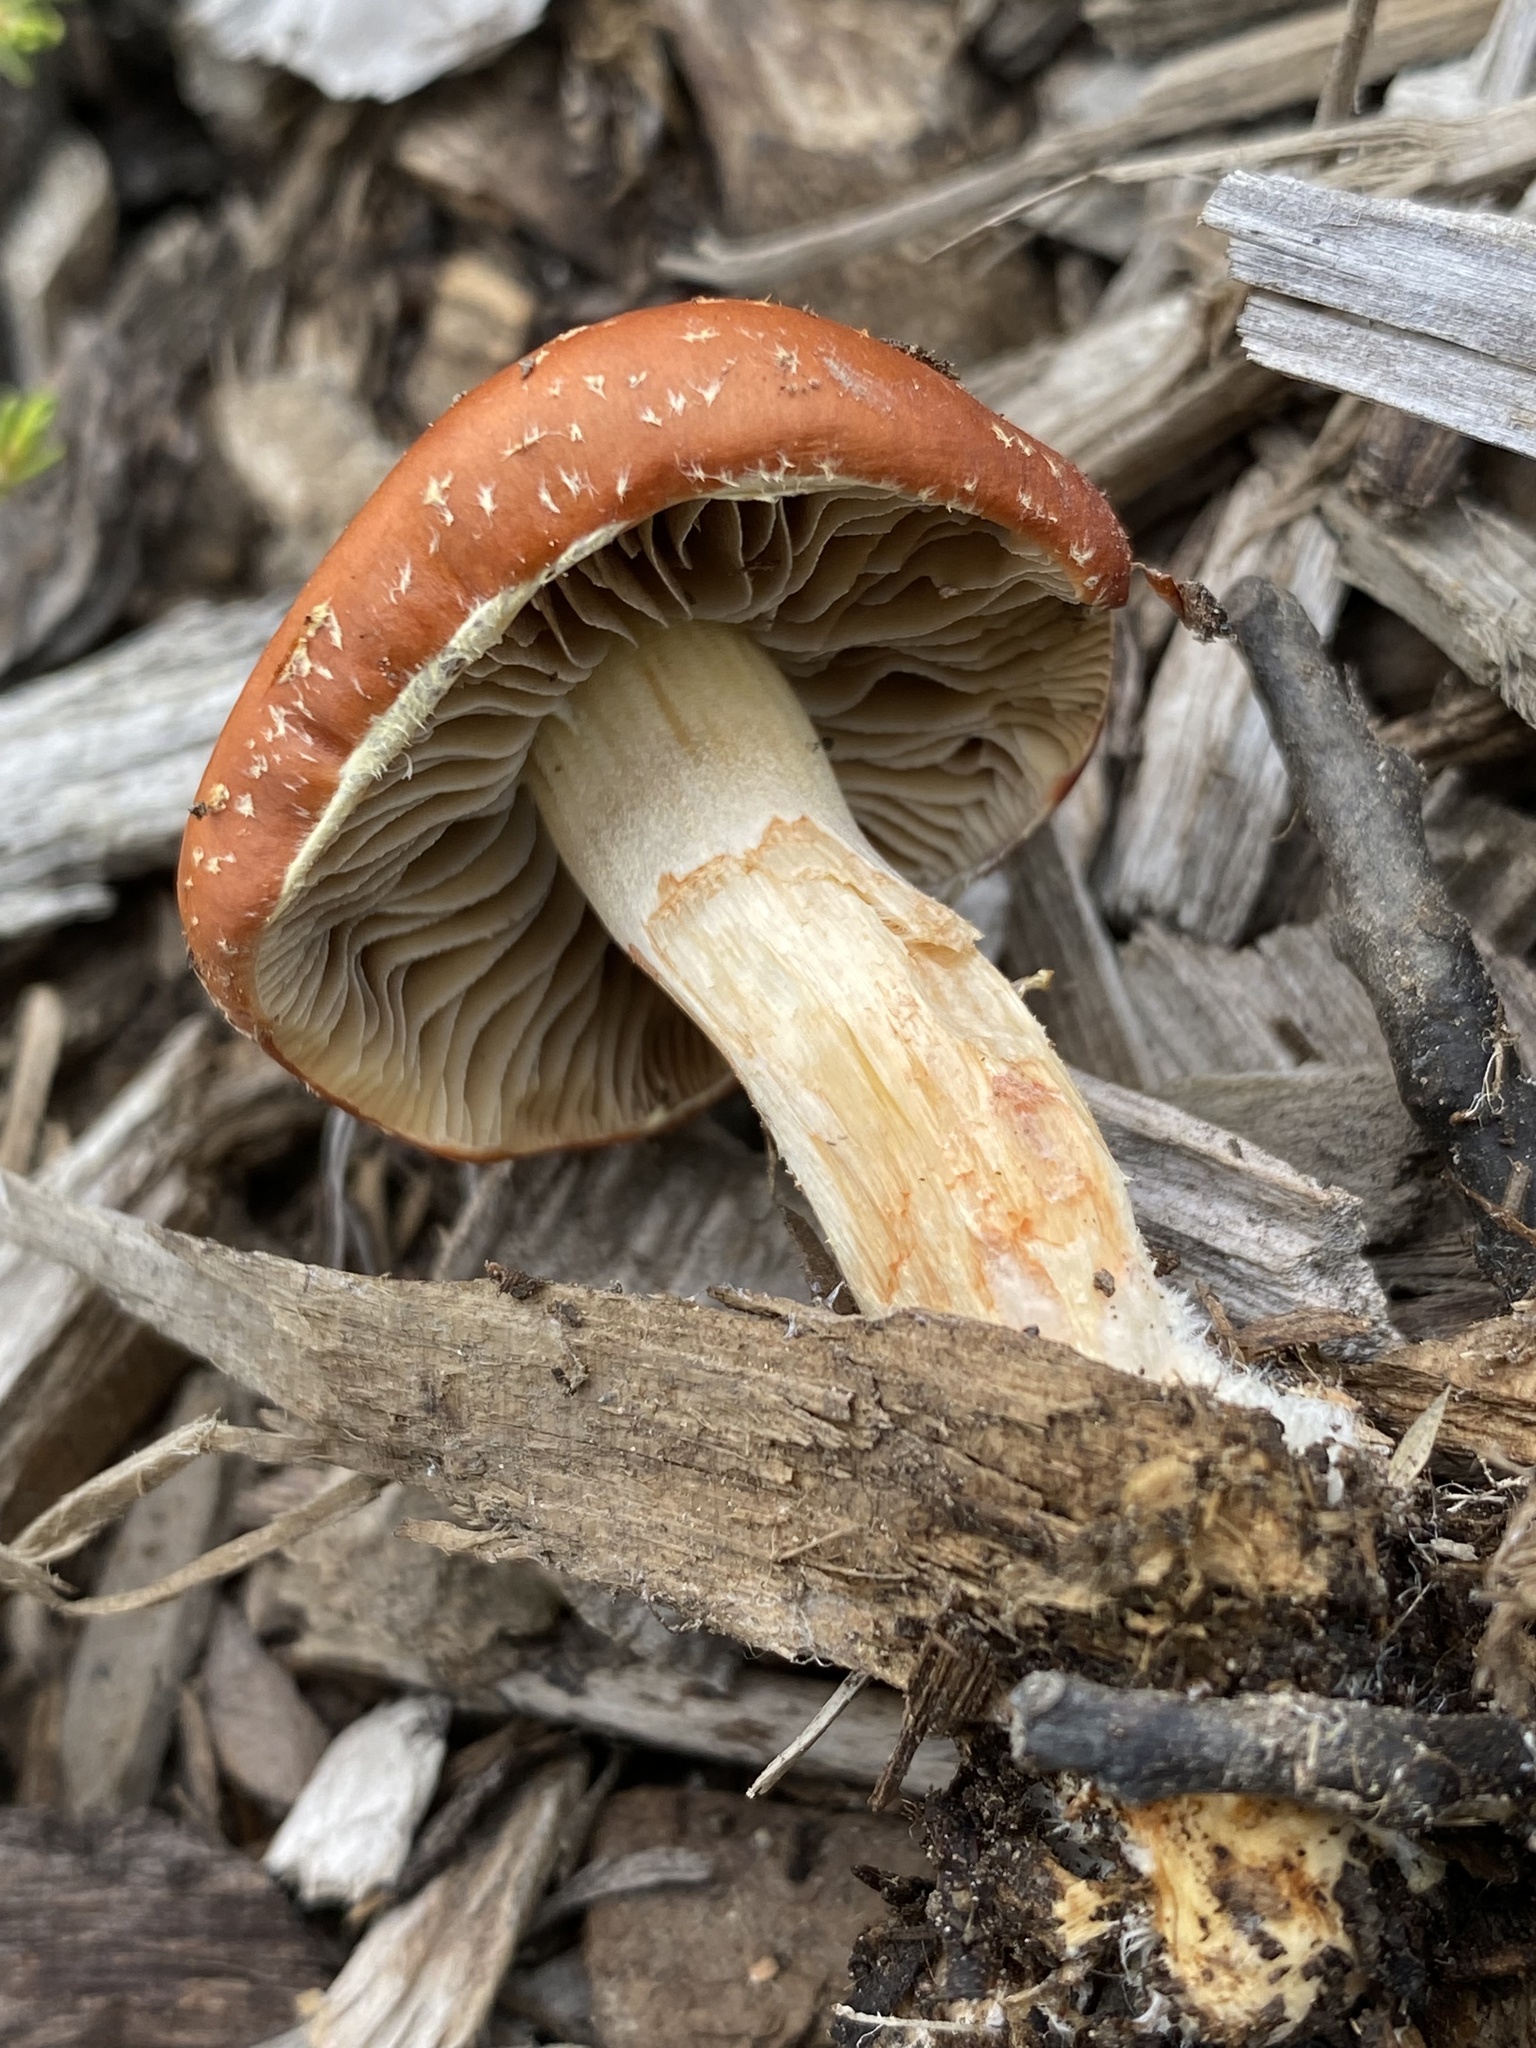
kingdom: Fungi
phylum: Basidiomycota
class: Agaricomycetes
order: Agaricales
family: Strophariaceae
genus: Leratiomyces
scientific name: Leratiomyces ceres
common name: Redlead roundhead
